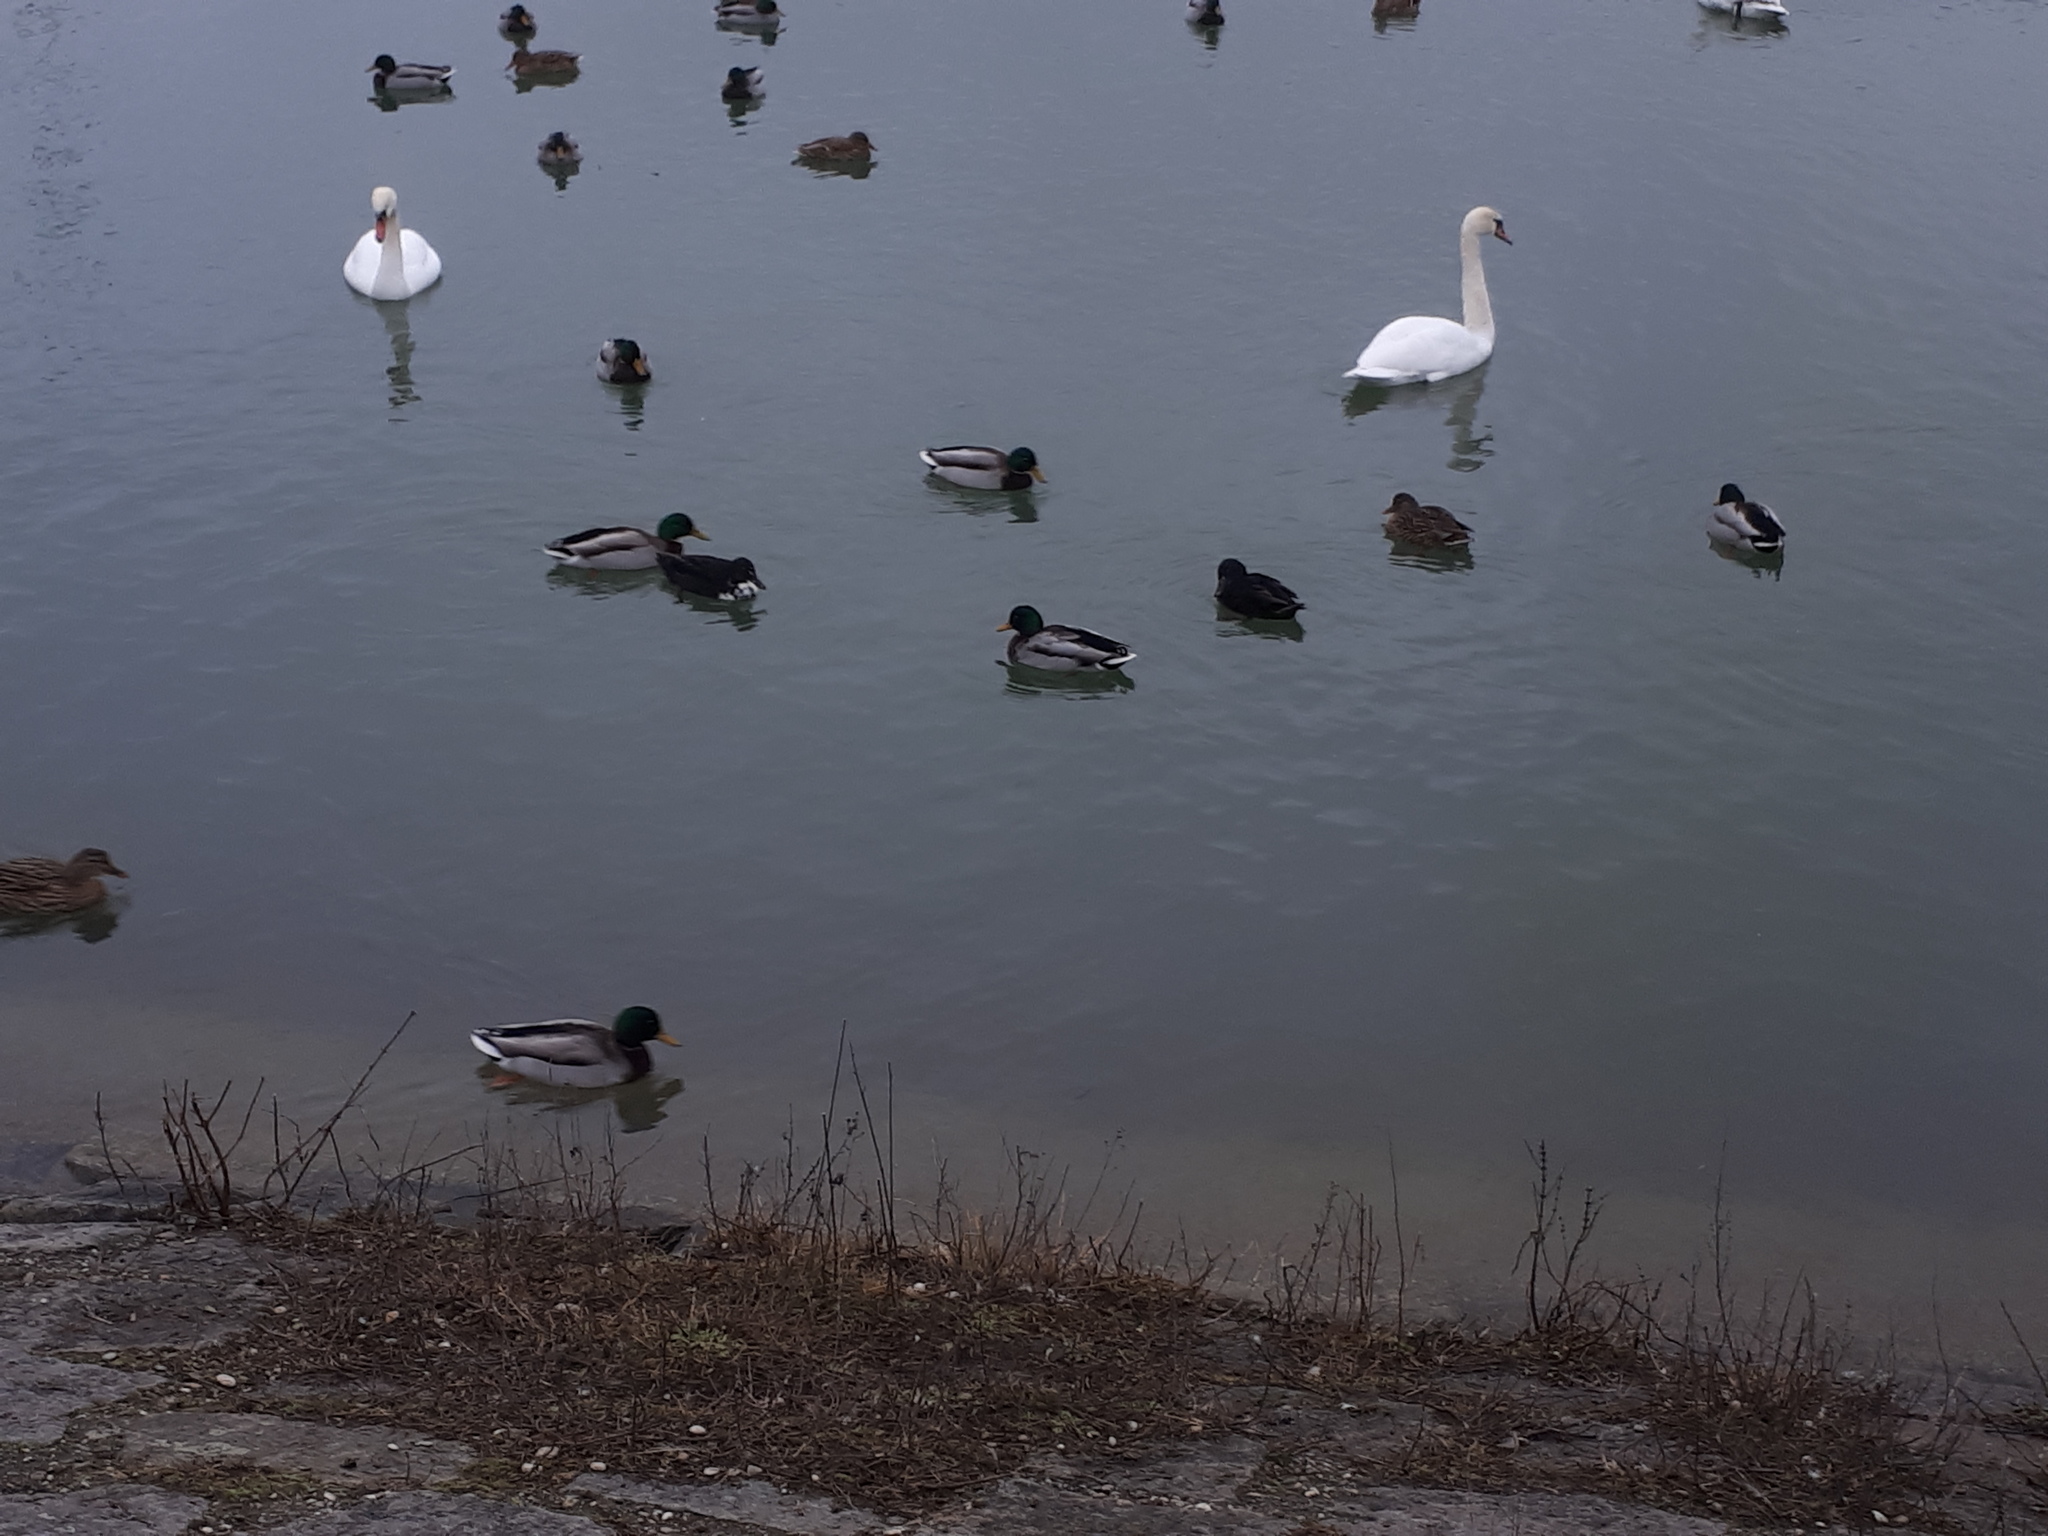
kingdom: Animalia
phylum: Chordata
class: Aves
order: Anseriformes
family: Anatidae
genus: Anas
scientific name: Anas platyrhynchos
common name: Mallard
